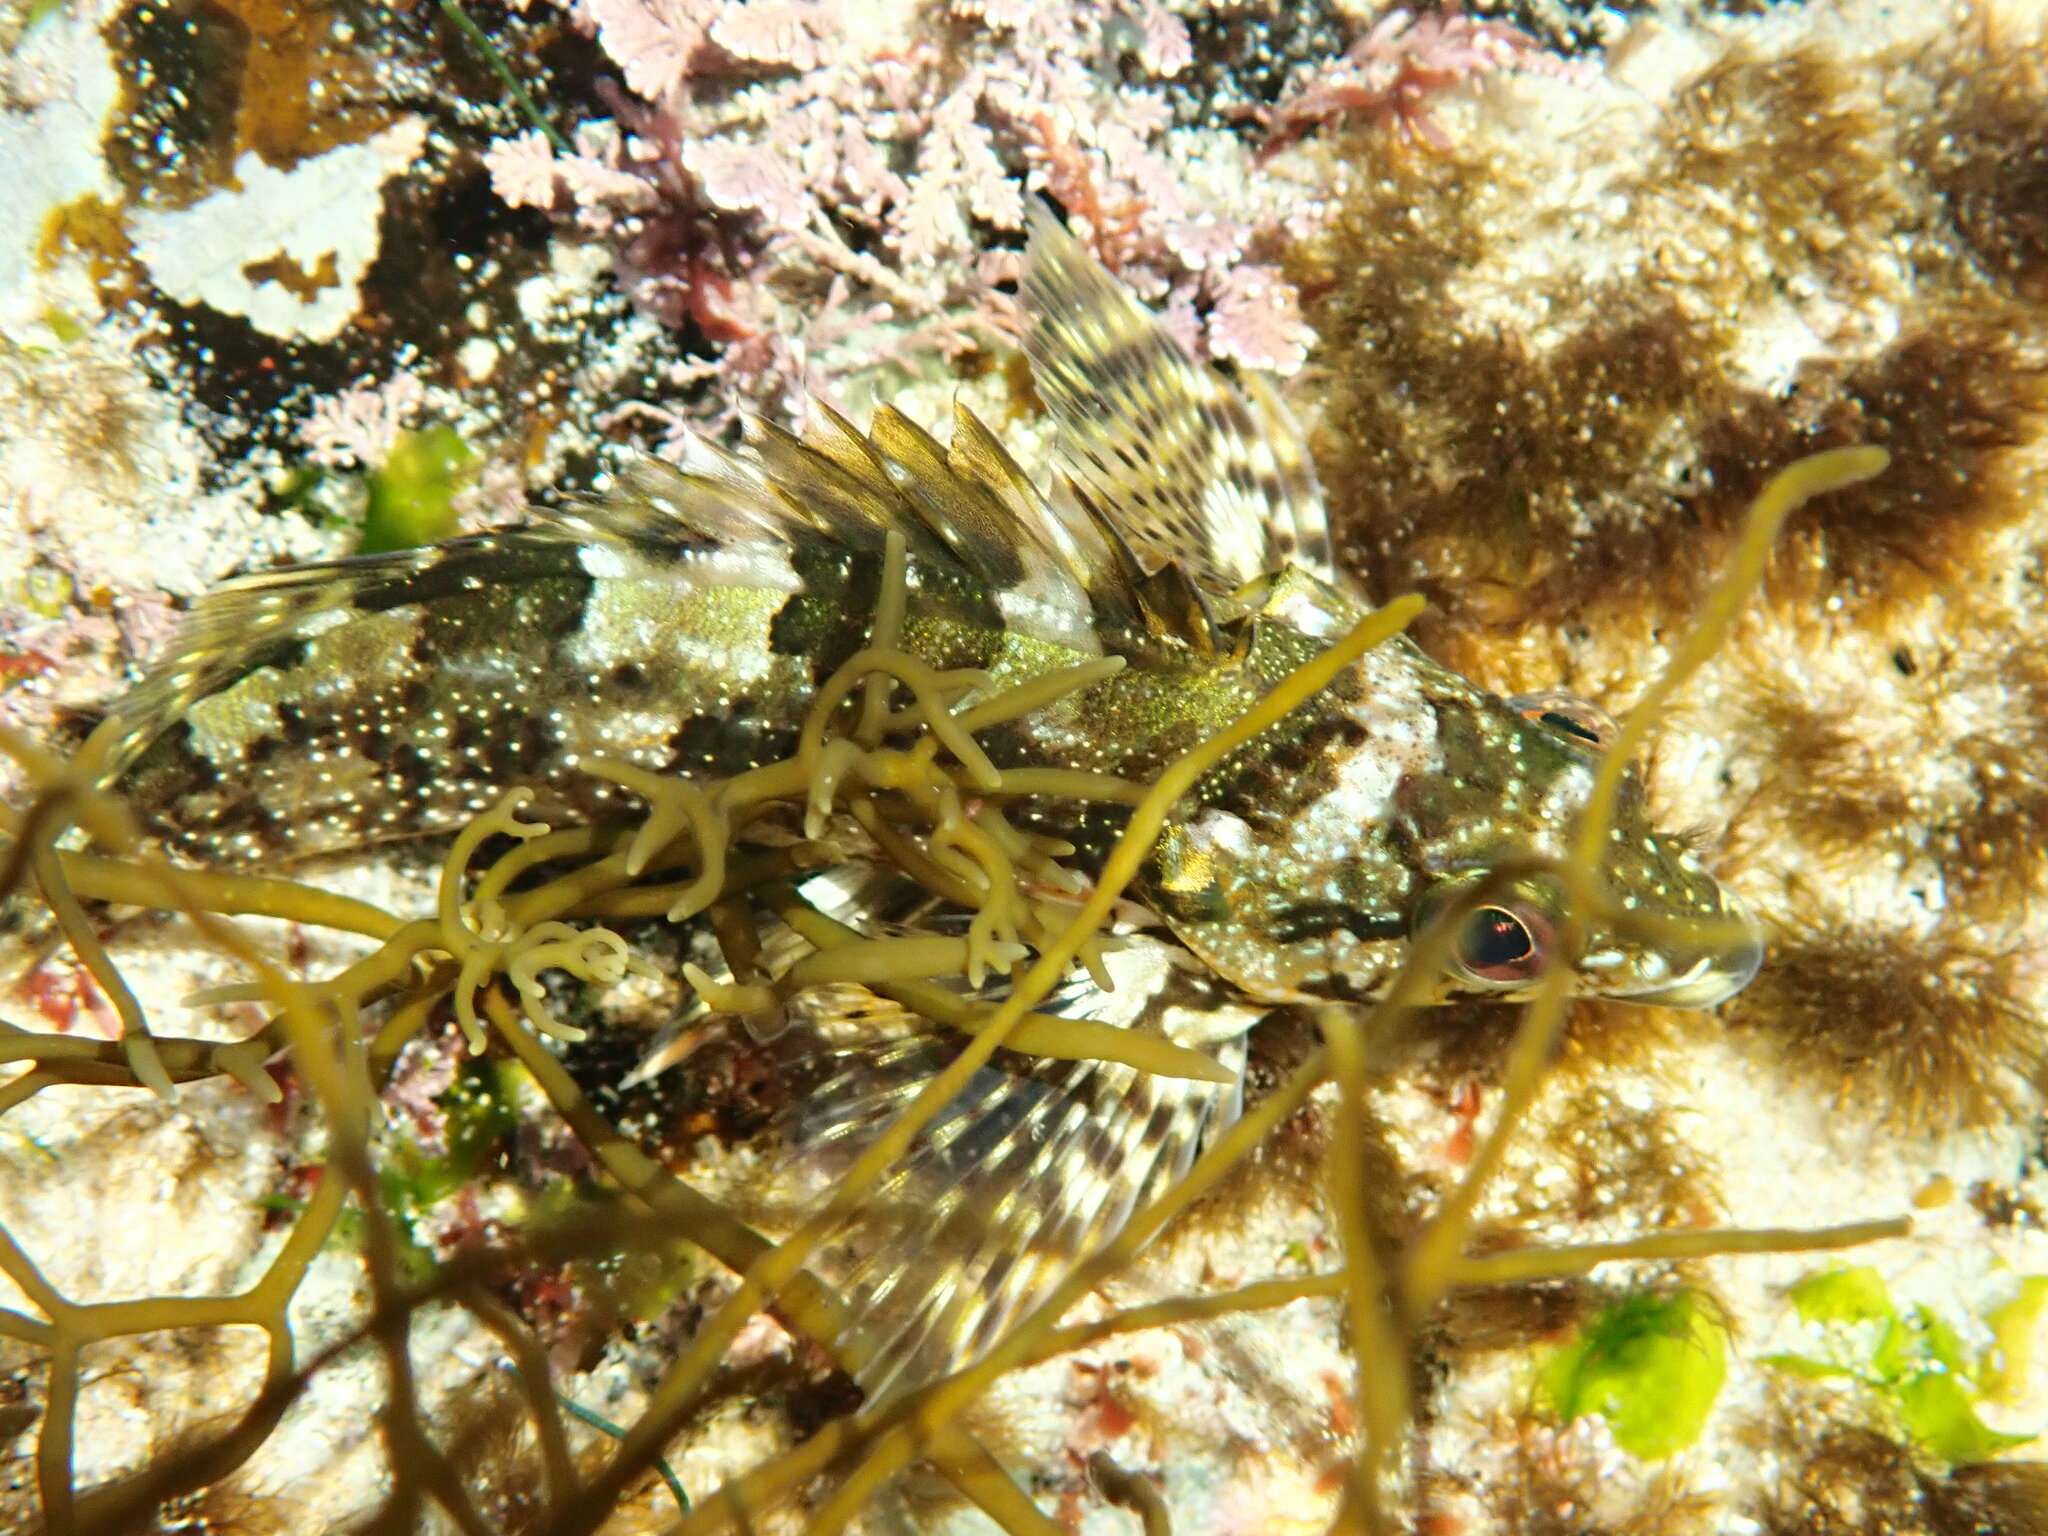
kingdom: Animalia
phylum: Chordata
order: Perciformes
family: Chironemidae
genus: Chironemus
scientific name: Chironemus marmoratus
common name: Kelpfish
